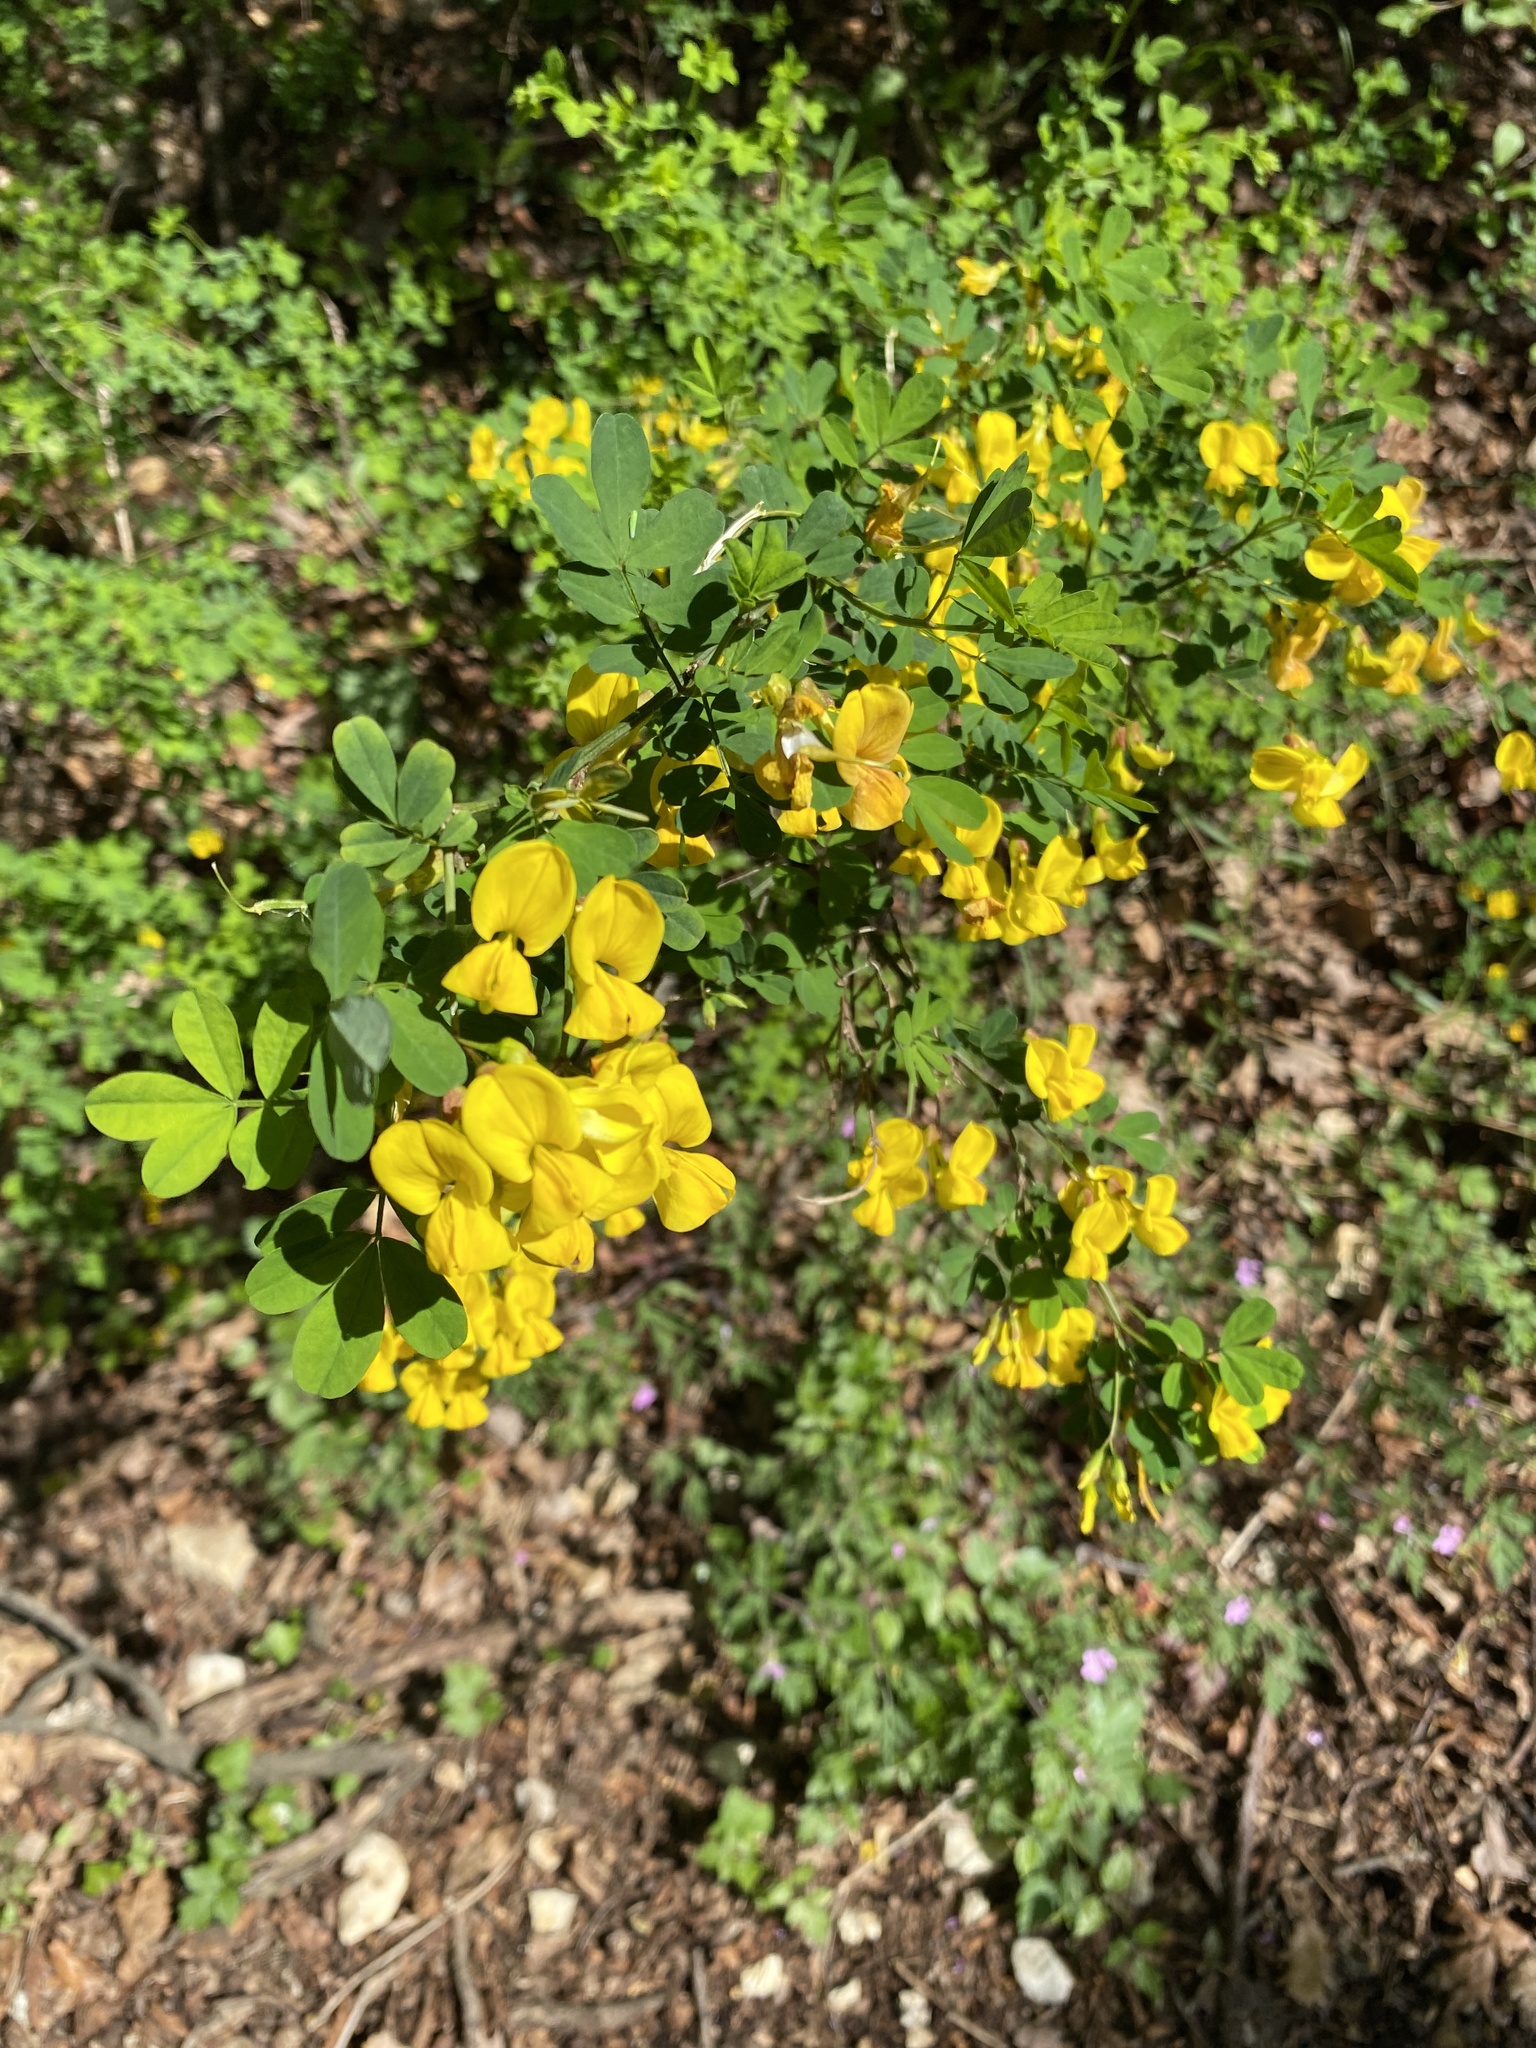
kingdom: Plantae
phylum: Tracheophyta
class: Magnoliopsida
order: Fabales
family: Fabaceae
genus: Hippocrepis
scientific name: Hippocrepis emerus
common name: Scorpion senna
